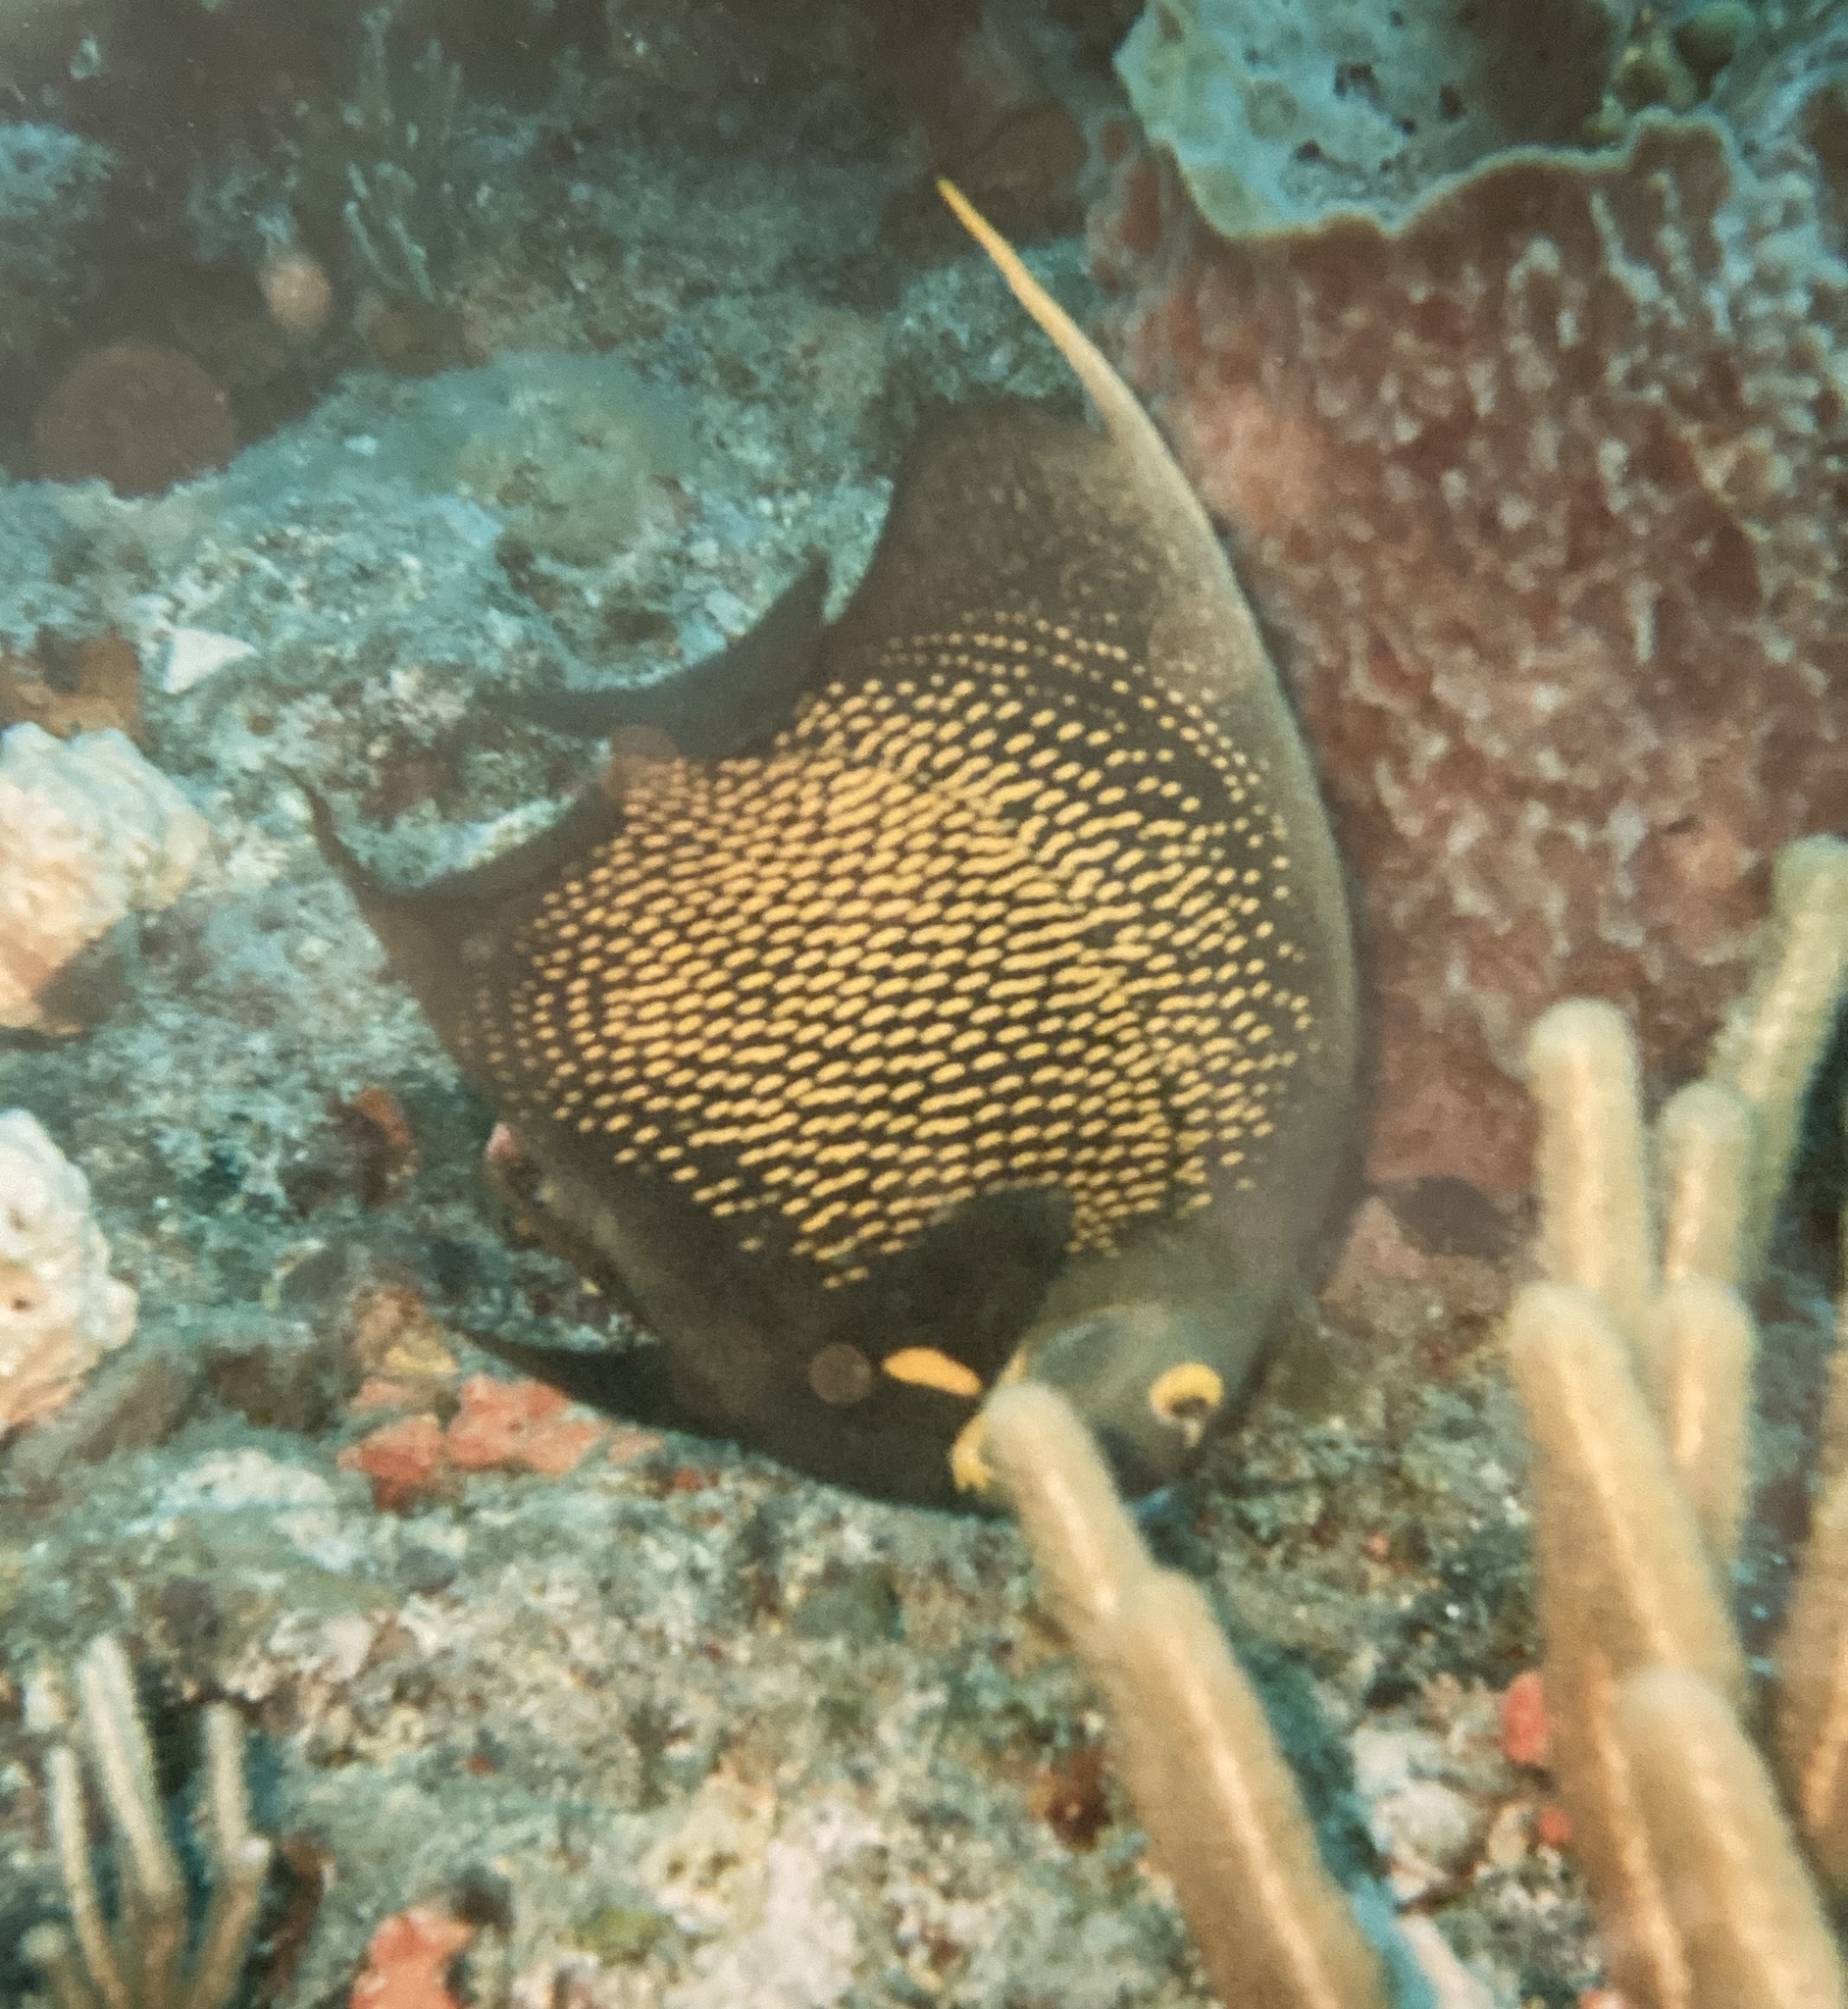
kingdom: Animalia
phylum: Chordata
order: Perciformes
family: Pomacanthidae
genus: Pomacanthus
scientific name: Pomacanthus paru
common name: French angelfish
